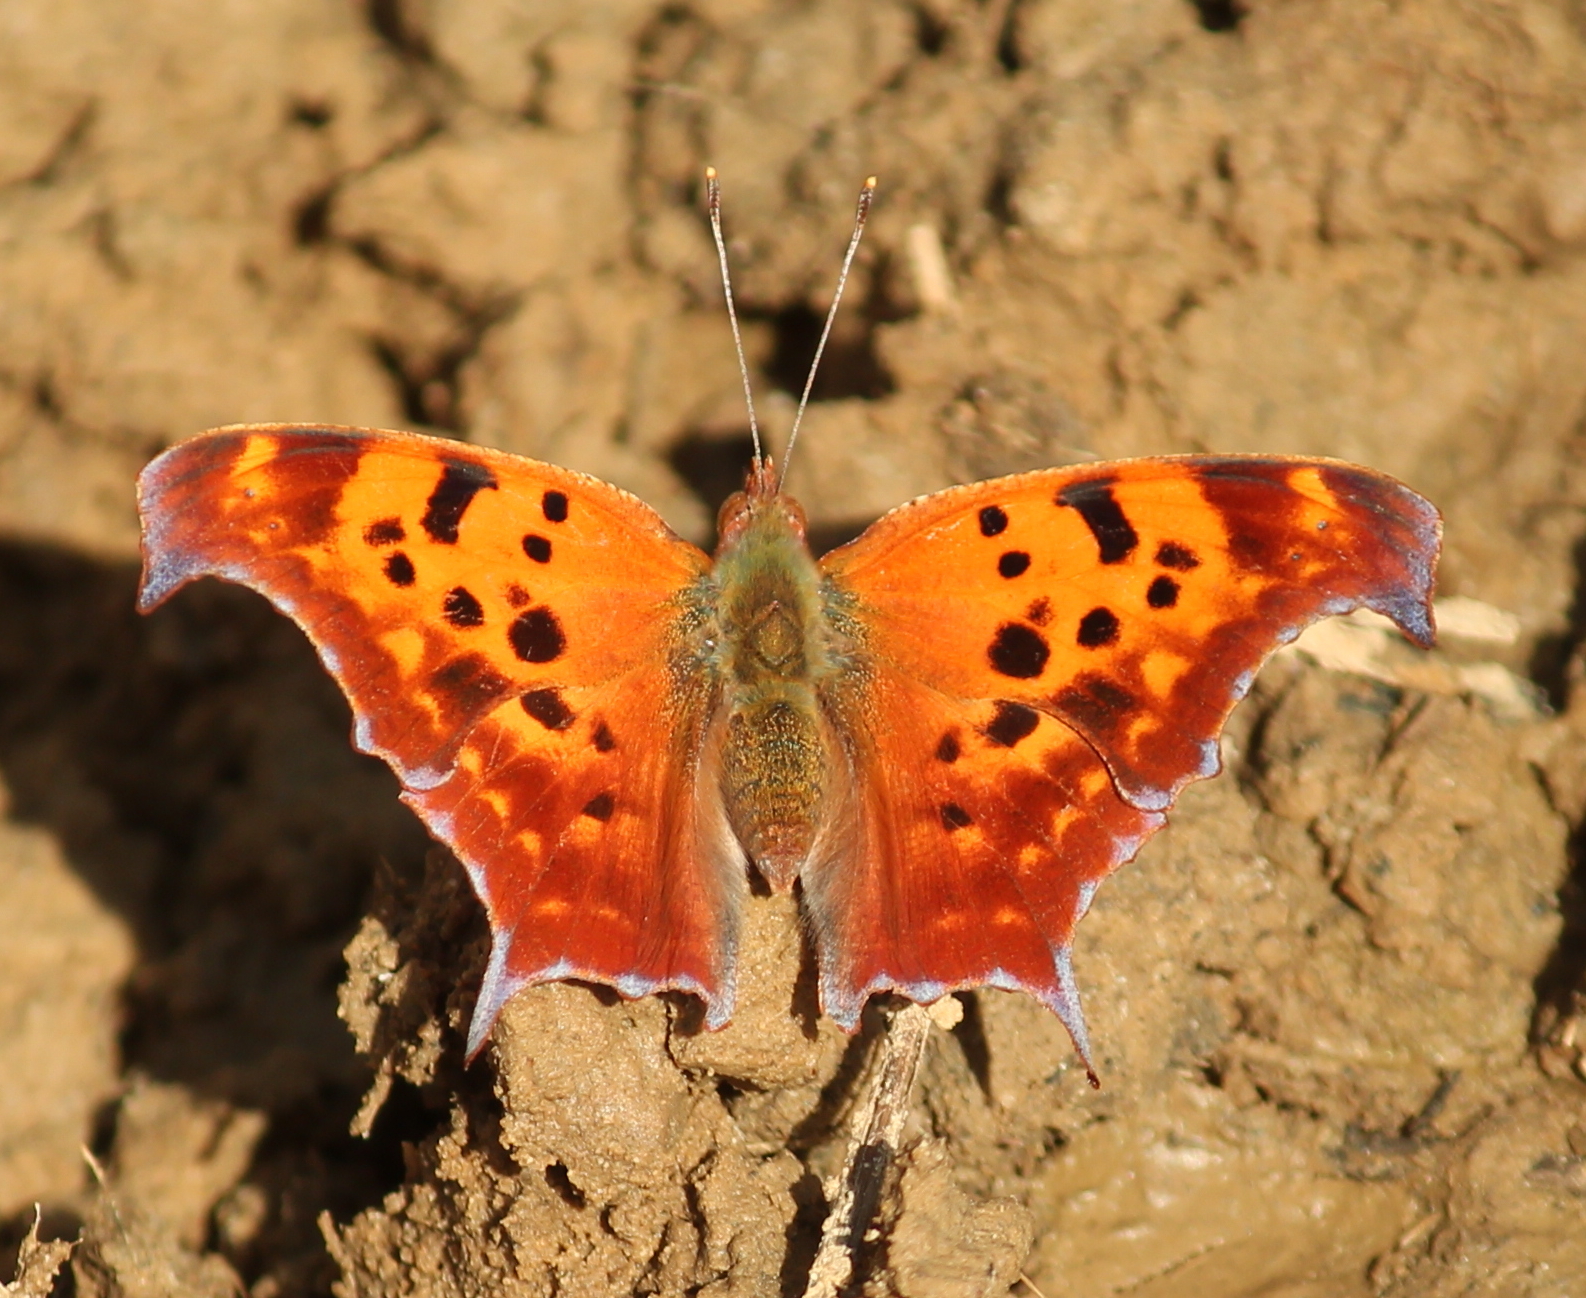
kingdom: Animalia
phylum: Arthropoda
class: Insecta
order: Lepidoptera
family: Nymphalidae
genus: Polygonia
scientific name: Polygonia interrogationis
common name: Question mark
